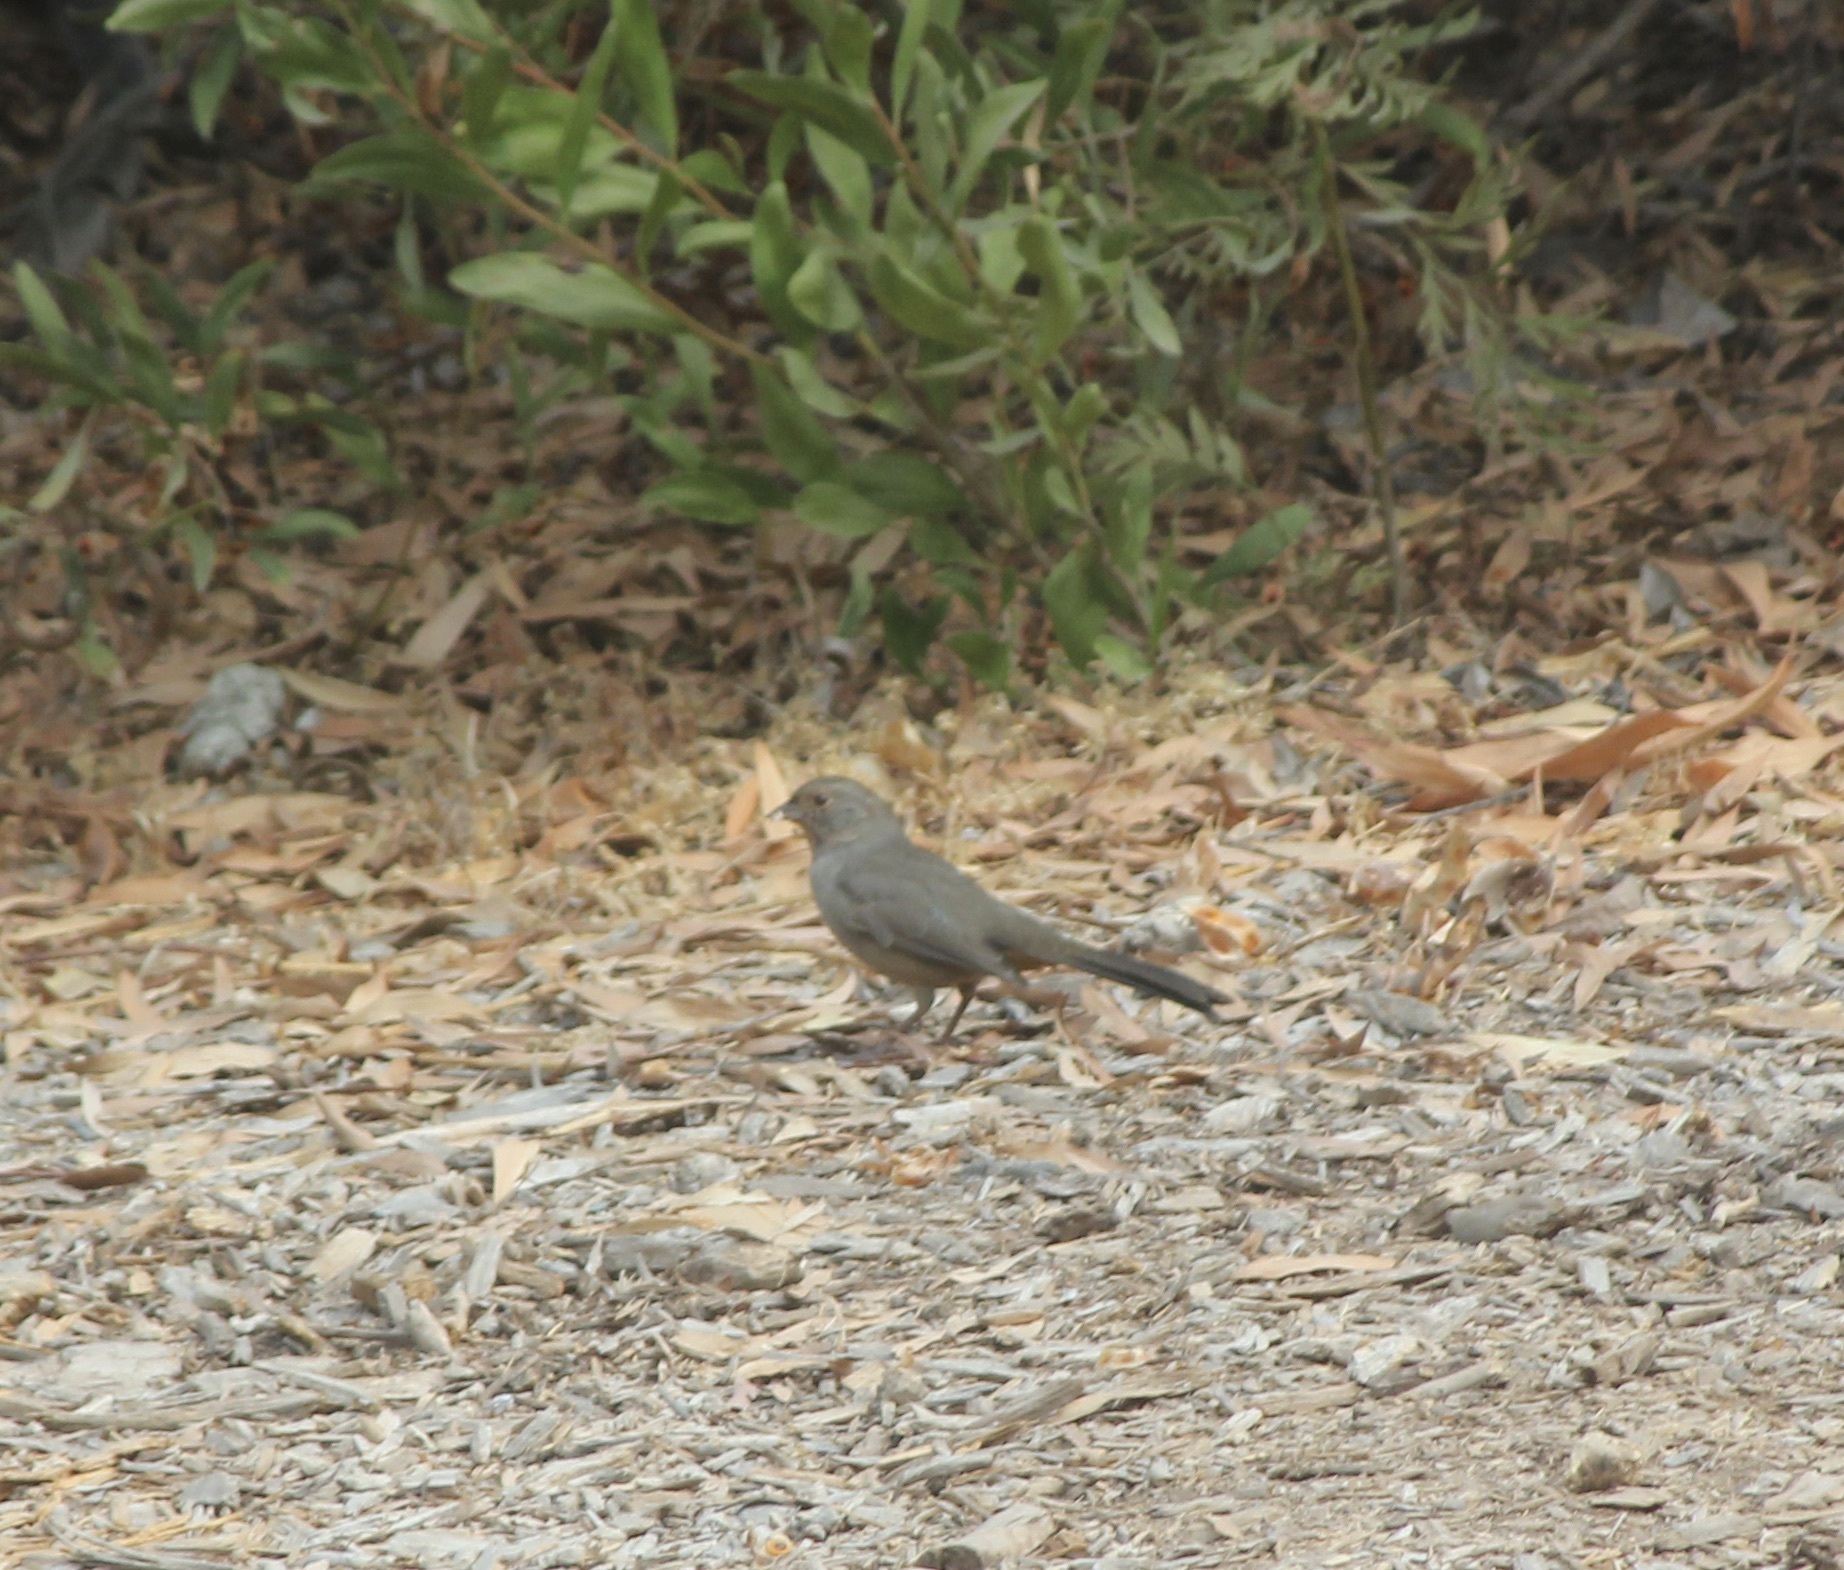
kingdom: Animalia
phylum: Chordata
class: Aves
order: Passeriformes
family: Passerellidae
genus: Melozone
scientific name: Melozone crissalis
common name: California towhee
